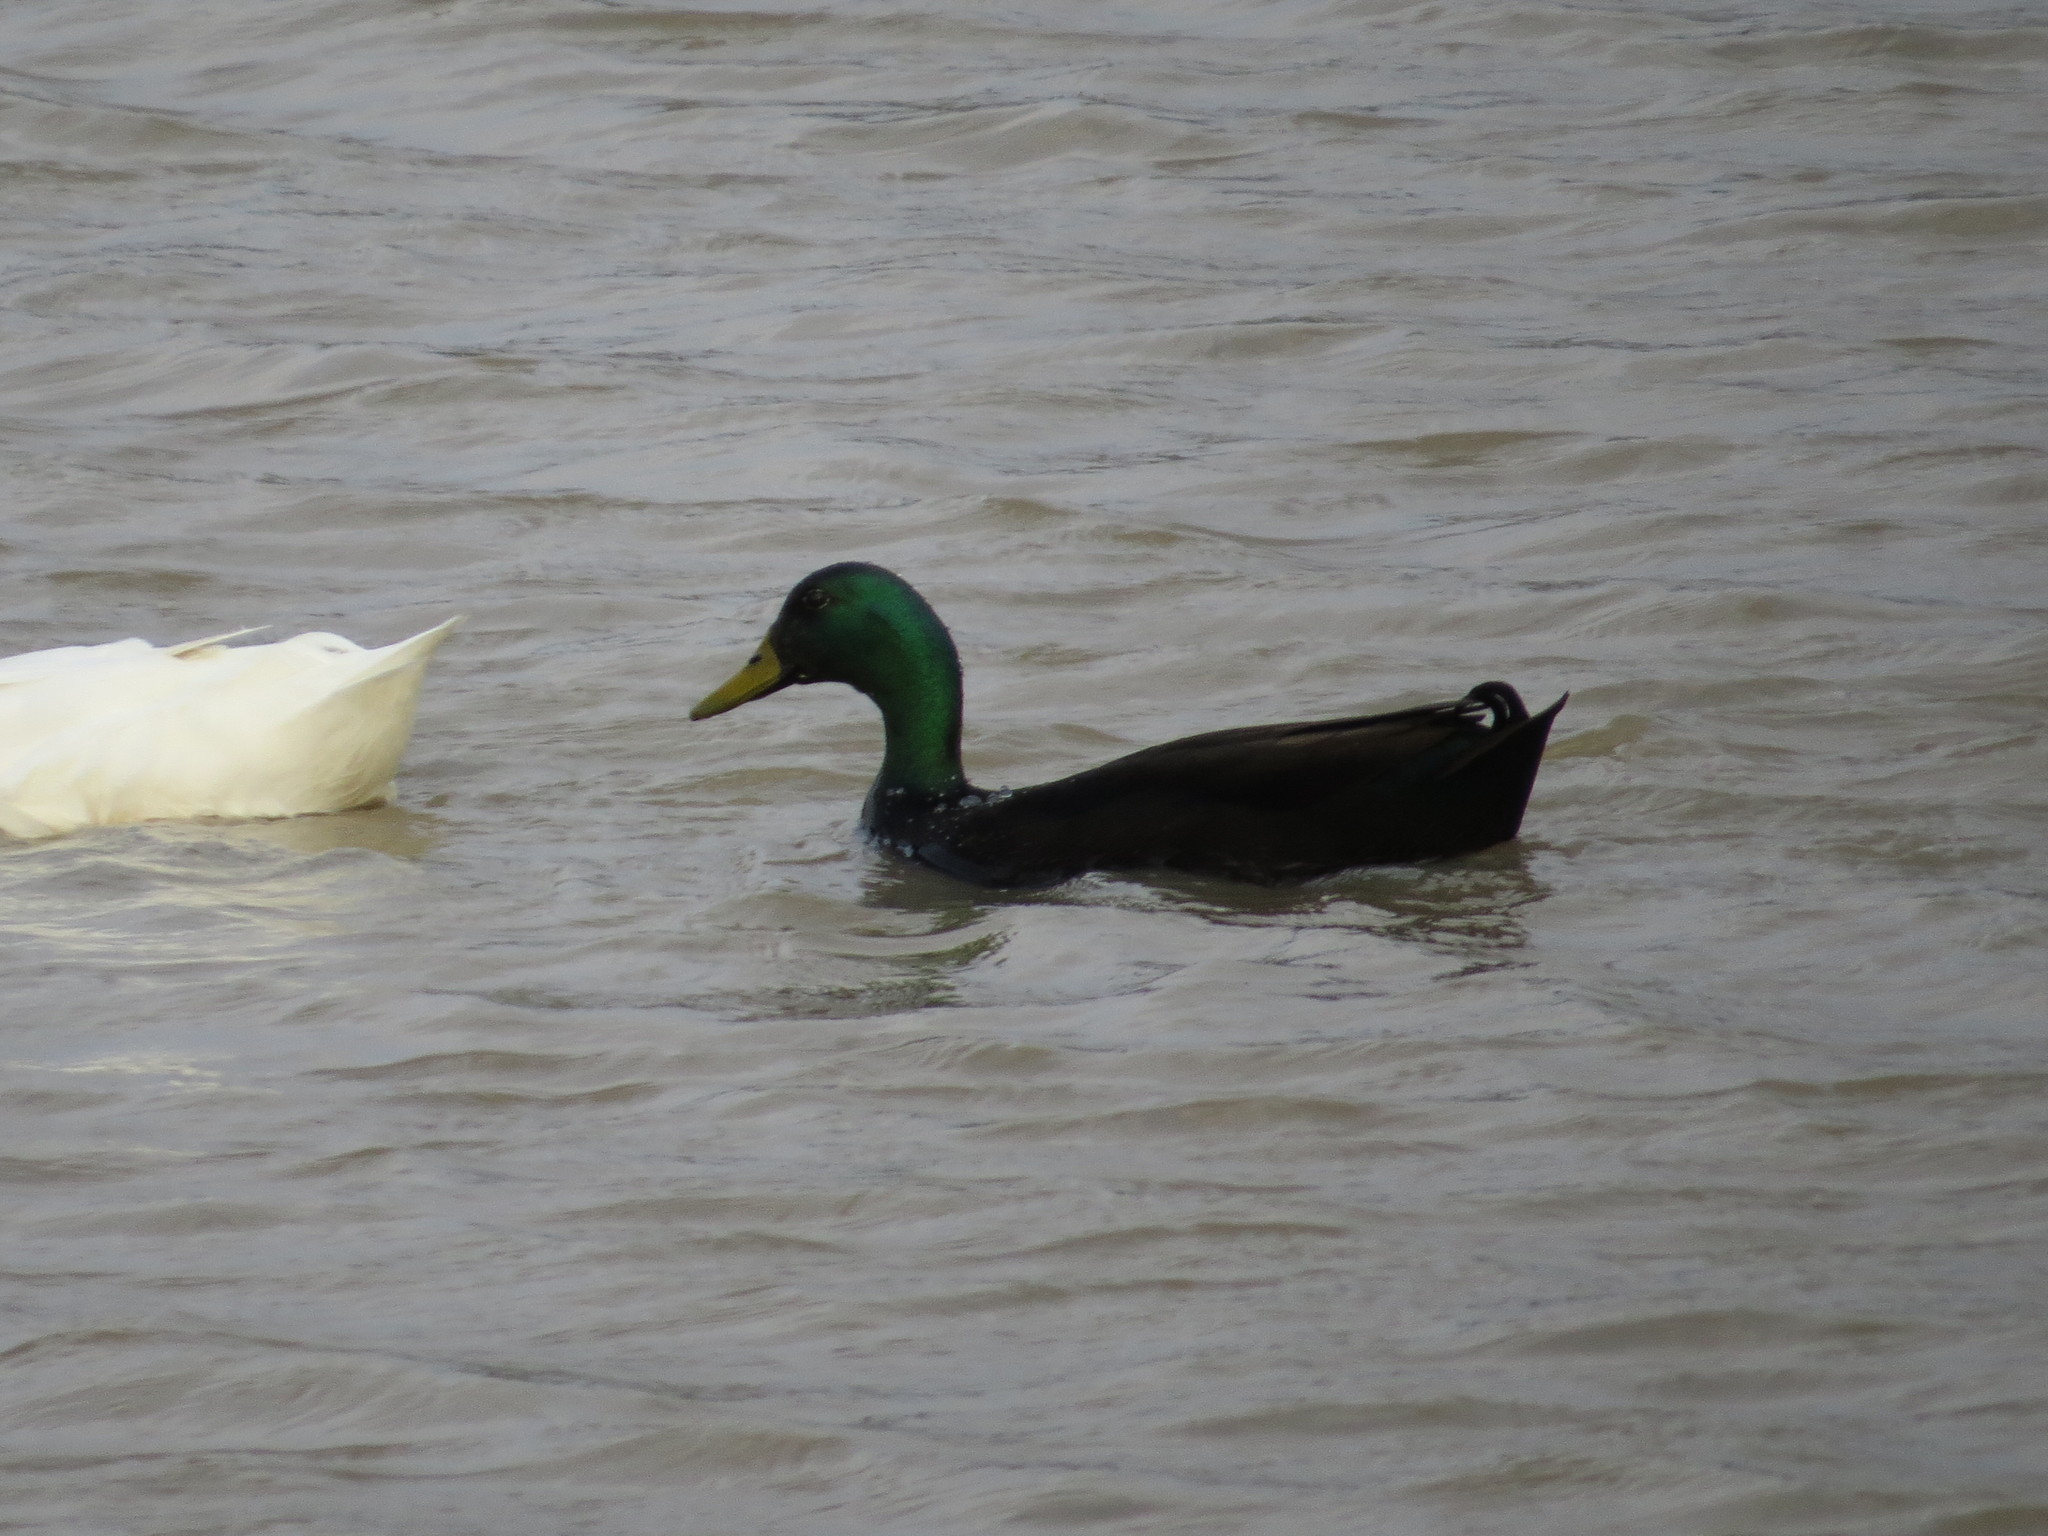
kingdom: Animalia
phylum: Chordata
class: Aves
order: Anseriformes
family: Anatidae
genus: Anas
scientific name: Anas platyrhynchos
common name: Mallard
